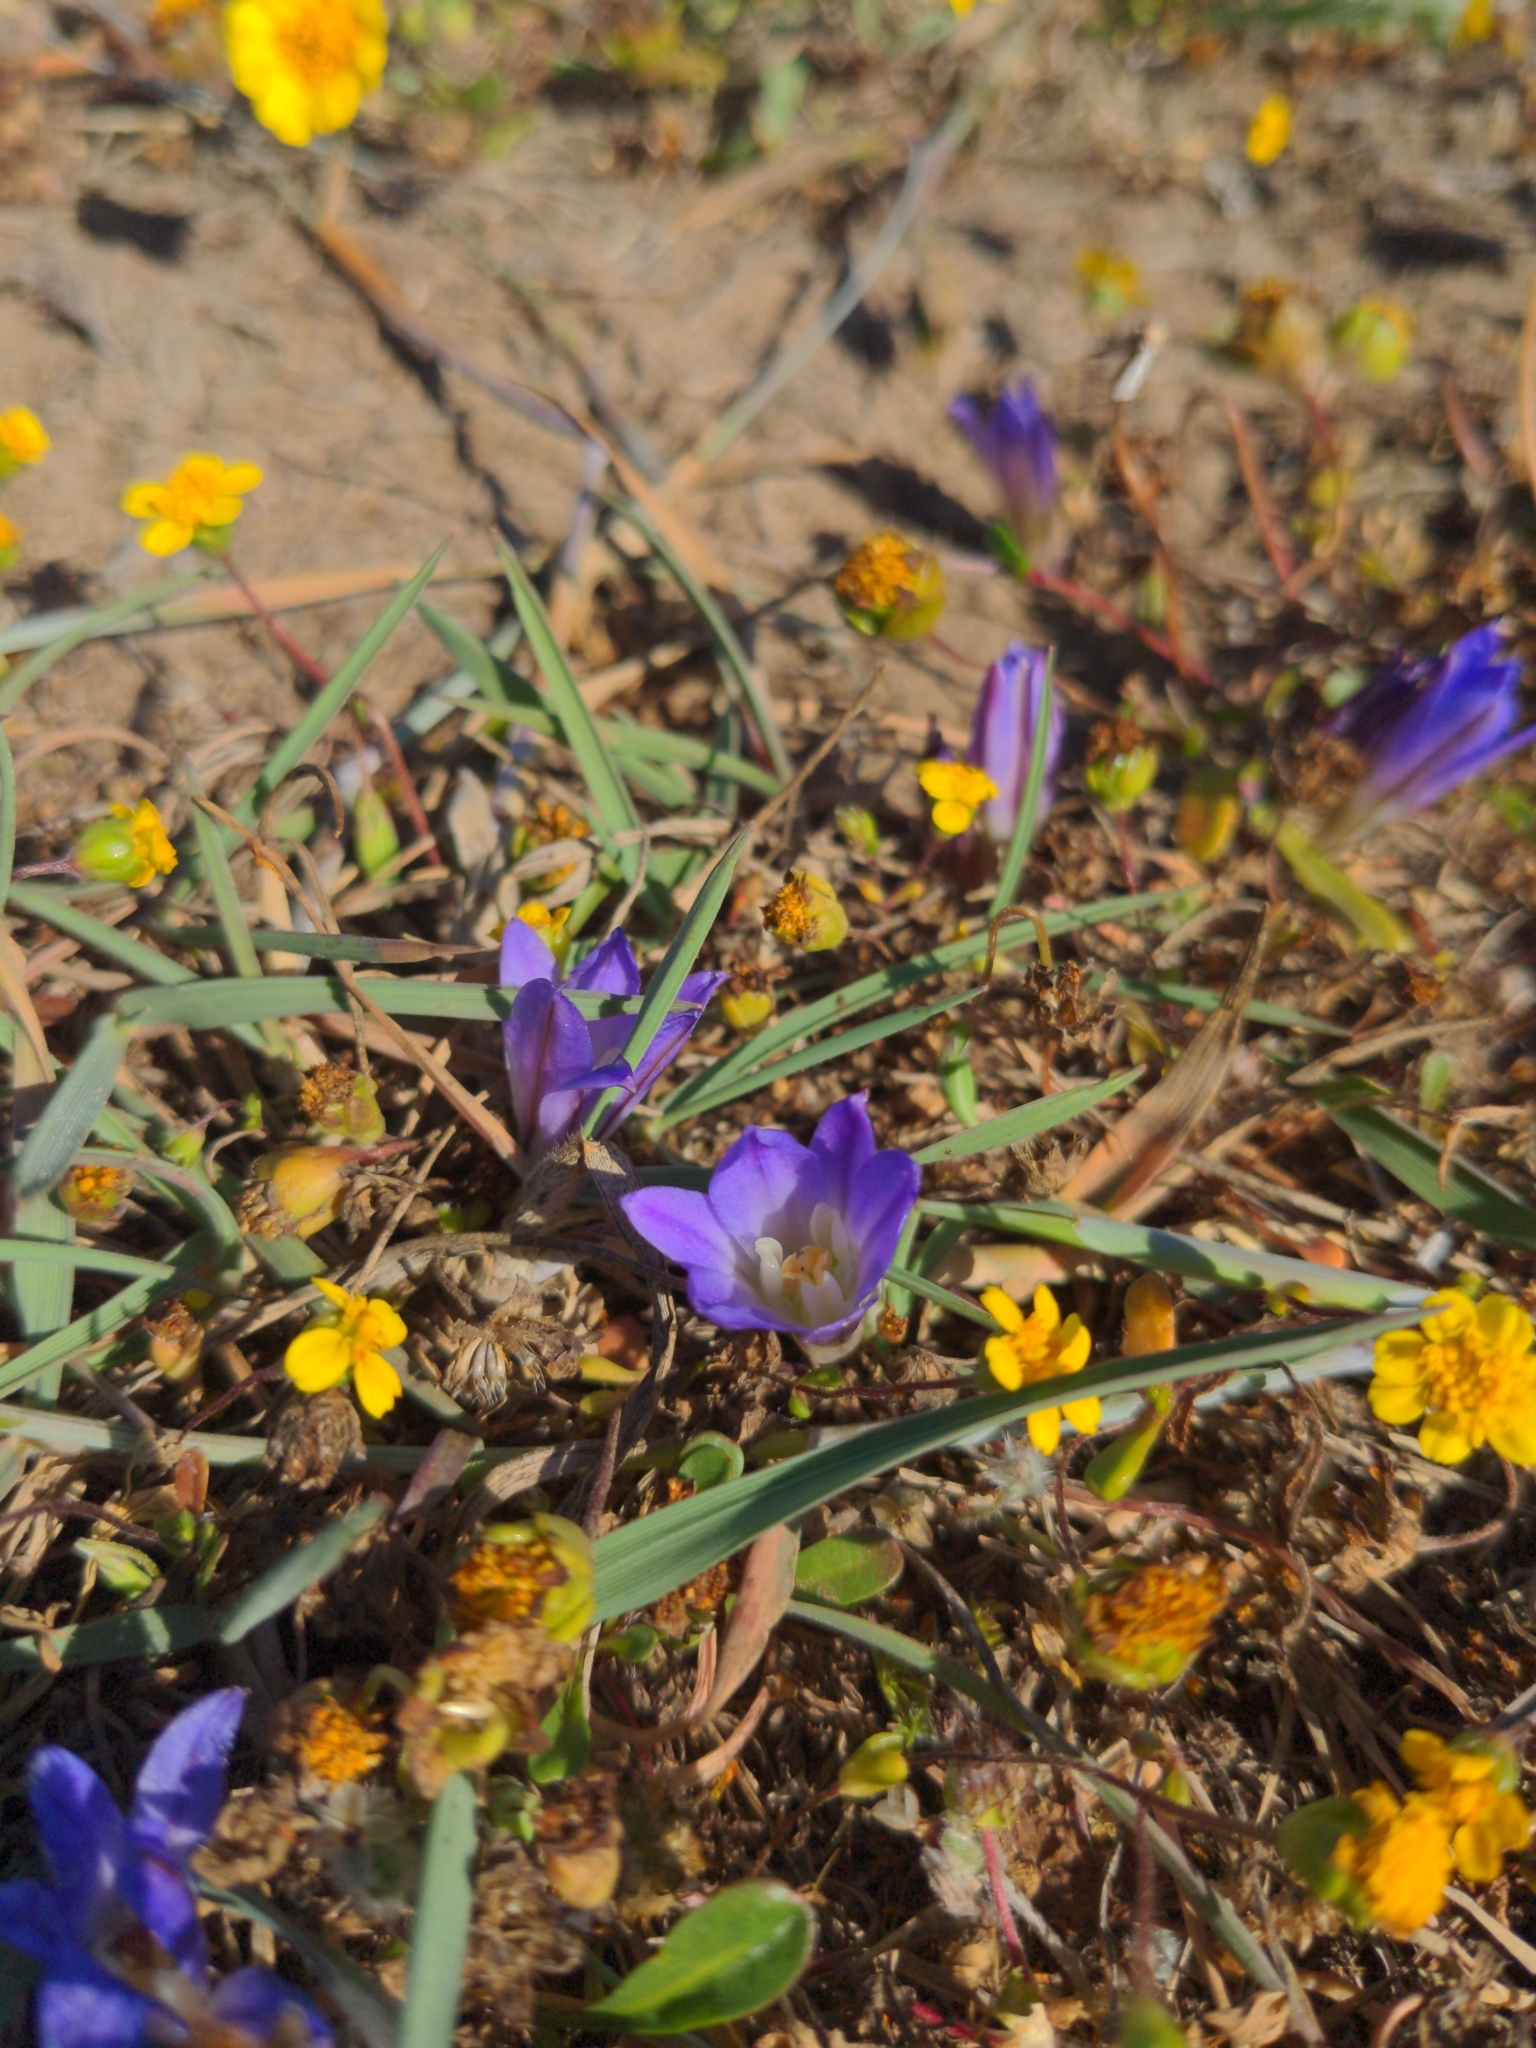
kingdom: Plantae
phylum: Tracheophyta
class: Liliopsida
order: Asparagales
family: Asparagaceae
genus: Brodiaea
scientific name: Brodiaea terrestris
